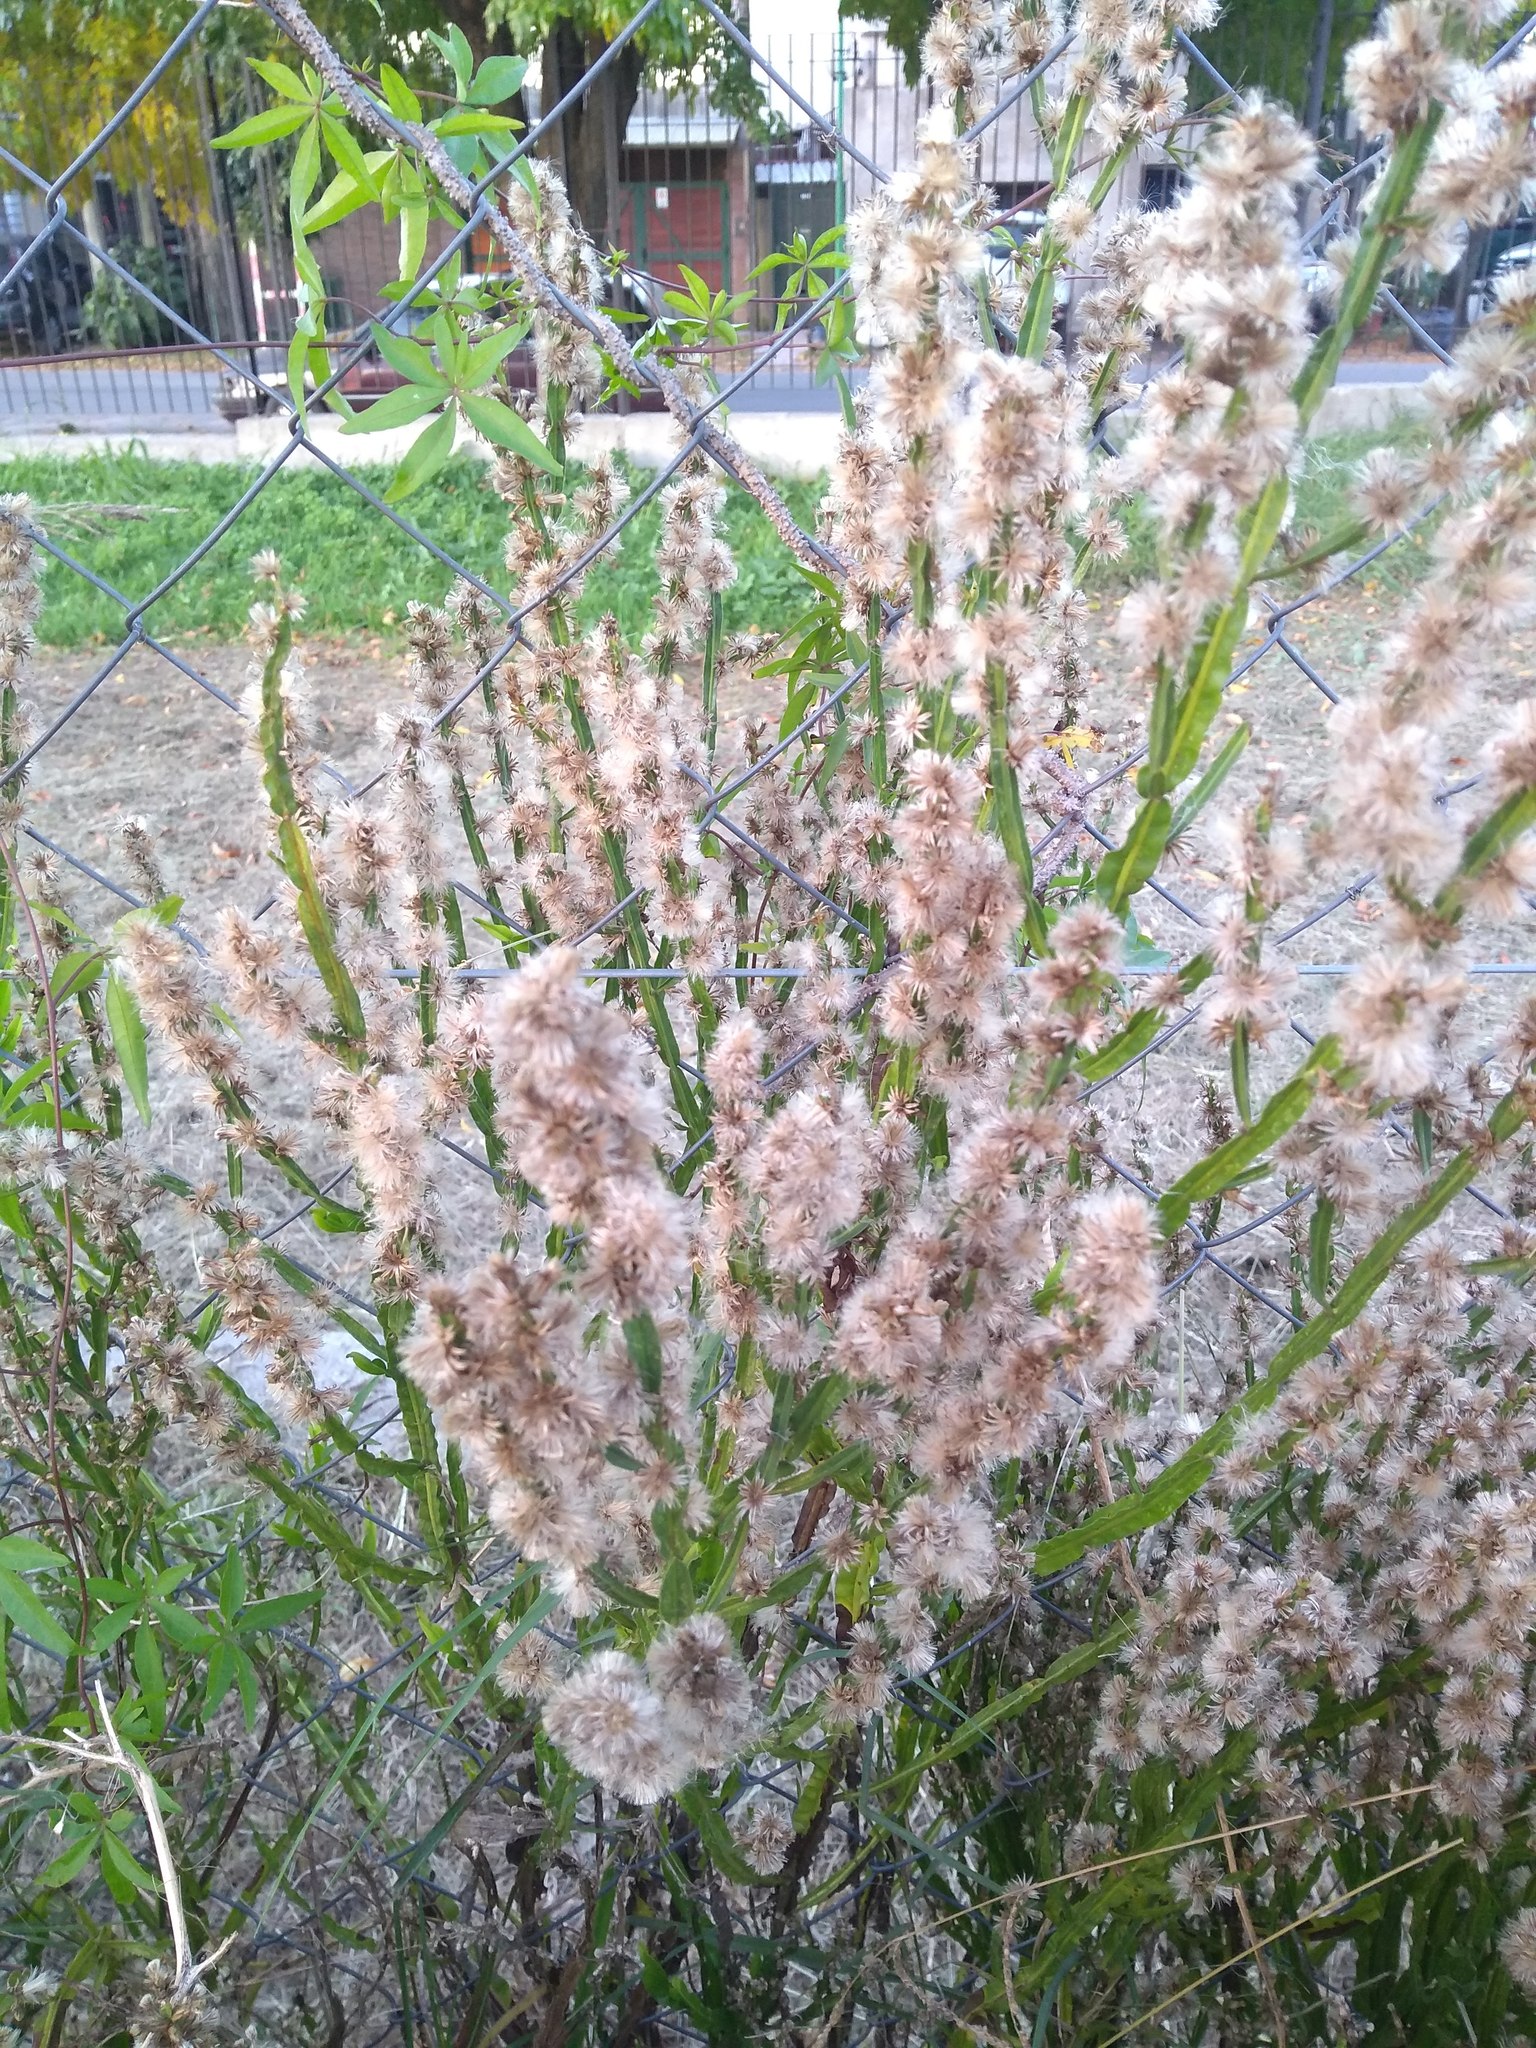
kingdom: Plantae
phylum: Tracheophyta
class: Magnoliopsida
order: Asterales
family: Asteraceae
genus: Baccharis
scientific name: Baccharis trimera
